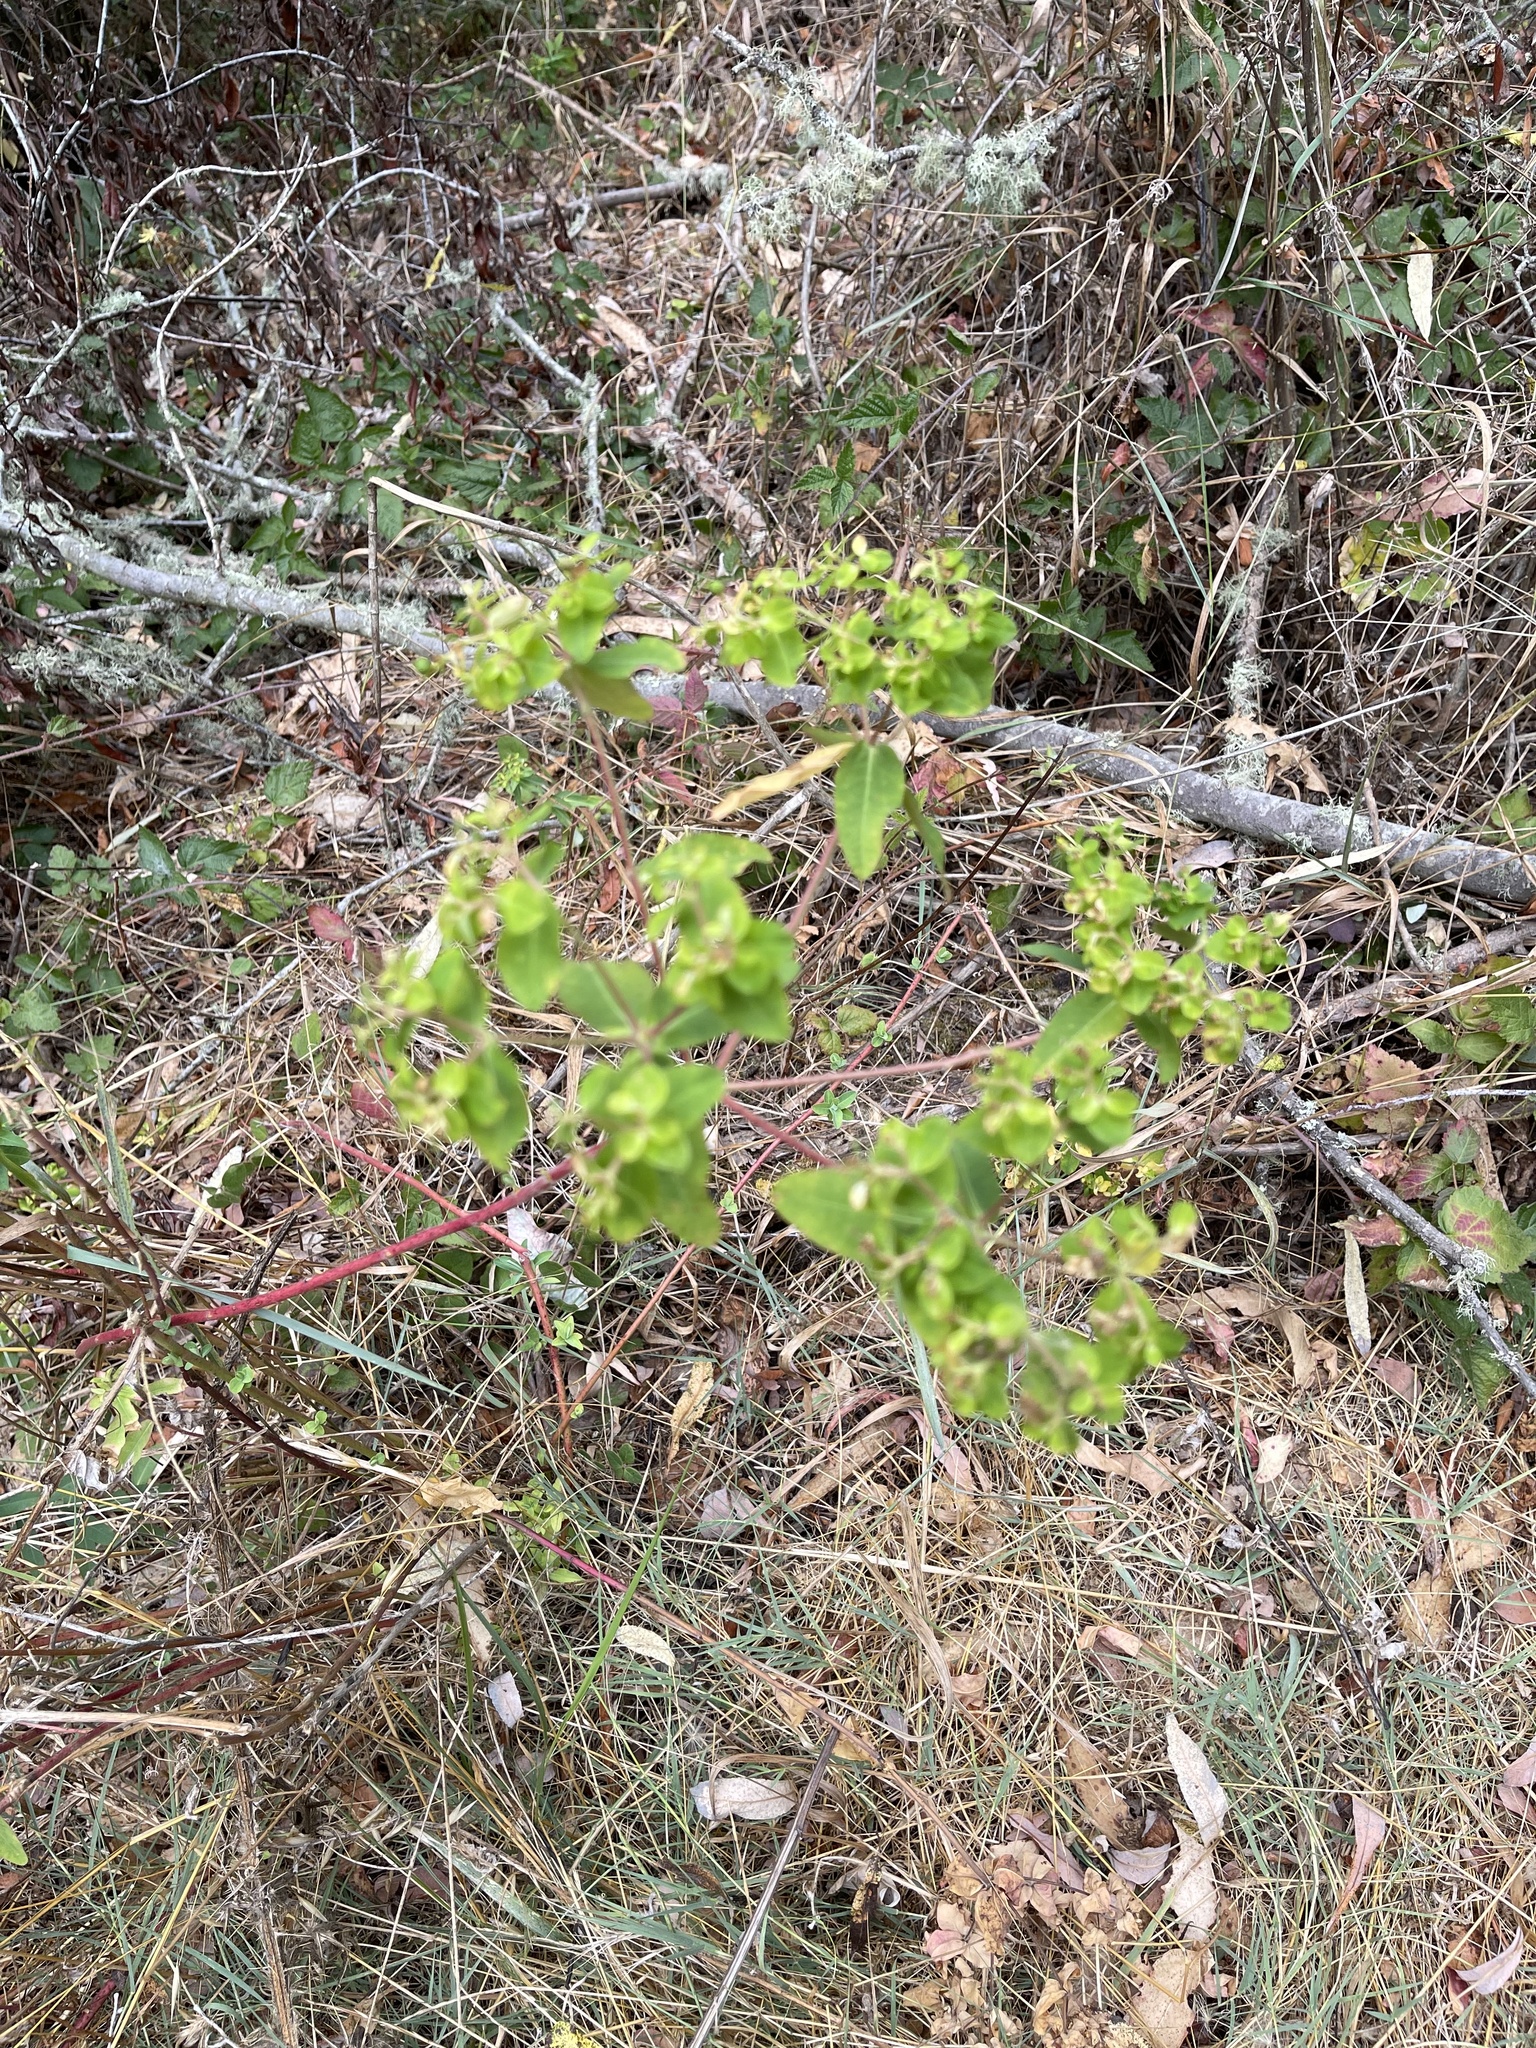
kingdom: Plantae
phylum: Tracheophyta
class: Magnoliopsida
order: Malpighiales
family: Euphorbiaceae
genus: Euphorbia
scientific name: Euphorbia oblongata
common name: Balkan spurge
